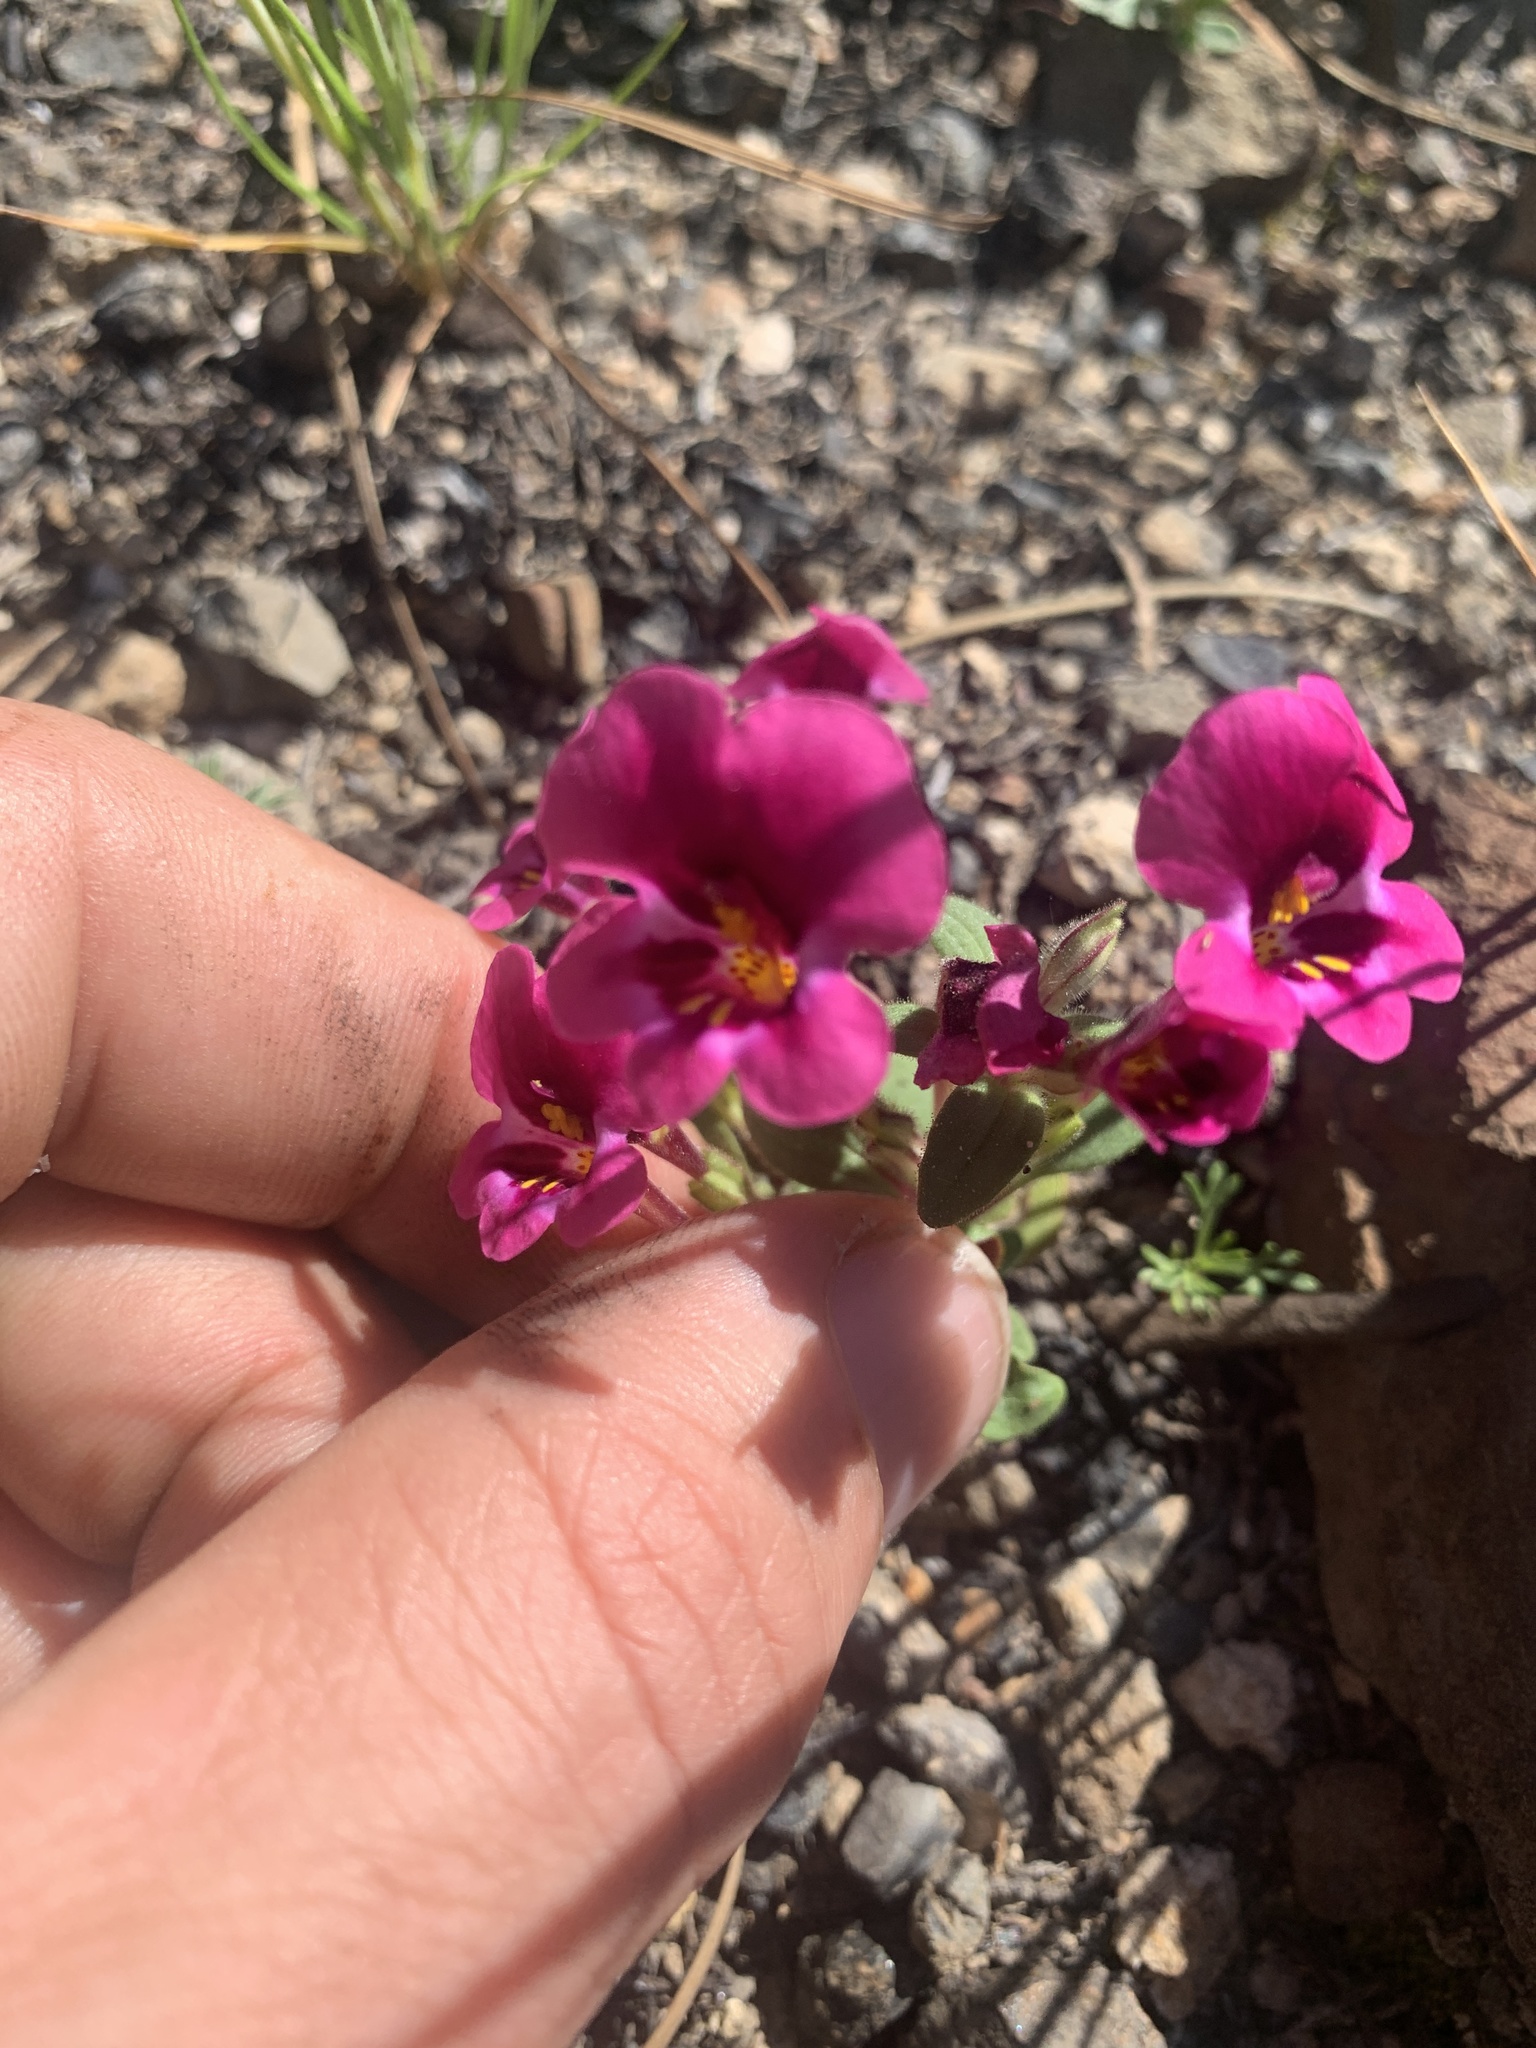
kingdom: Plantae
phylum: Tracheophyta
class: Magnoliopsida
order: Lamiales
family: Phrymaceae
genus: Diplacus
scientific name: Diplacus kelloggii
